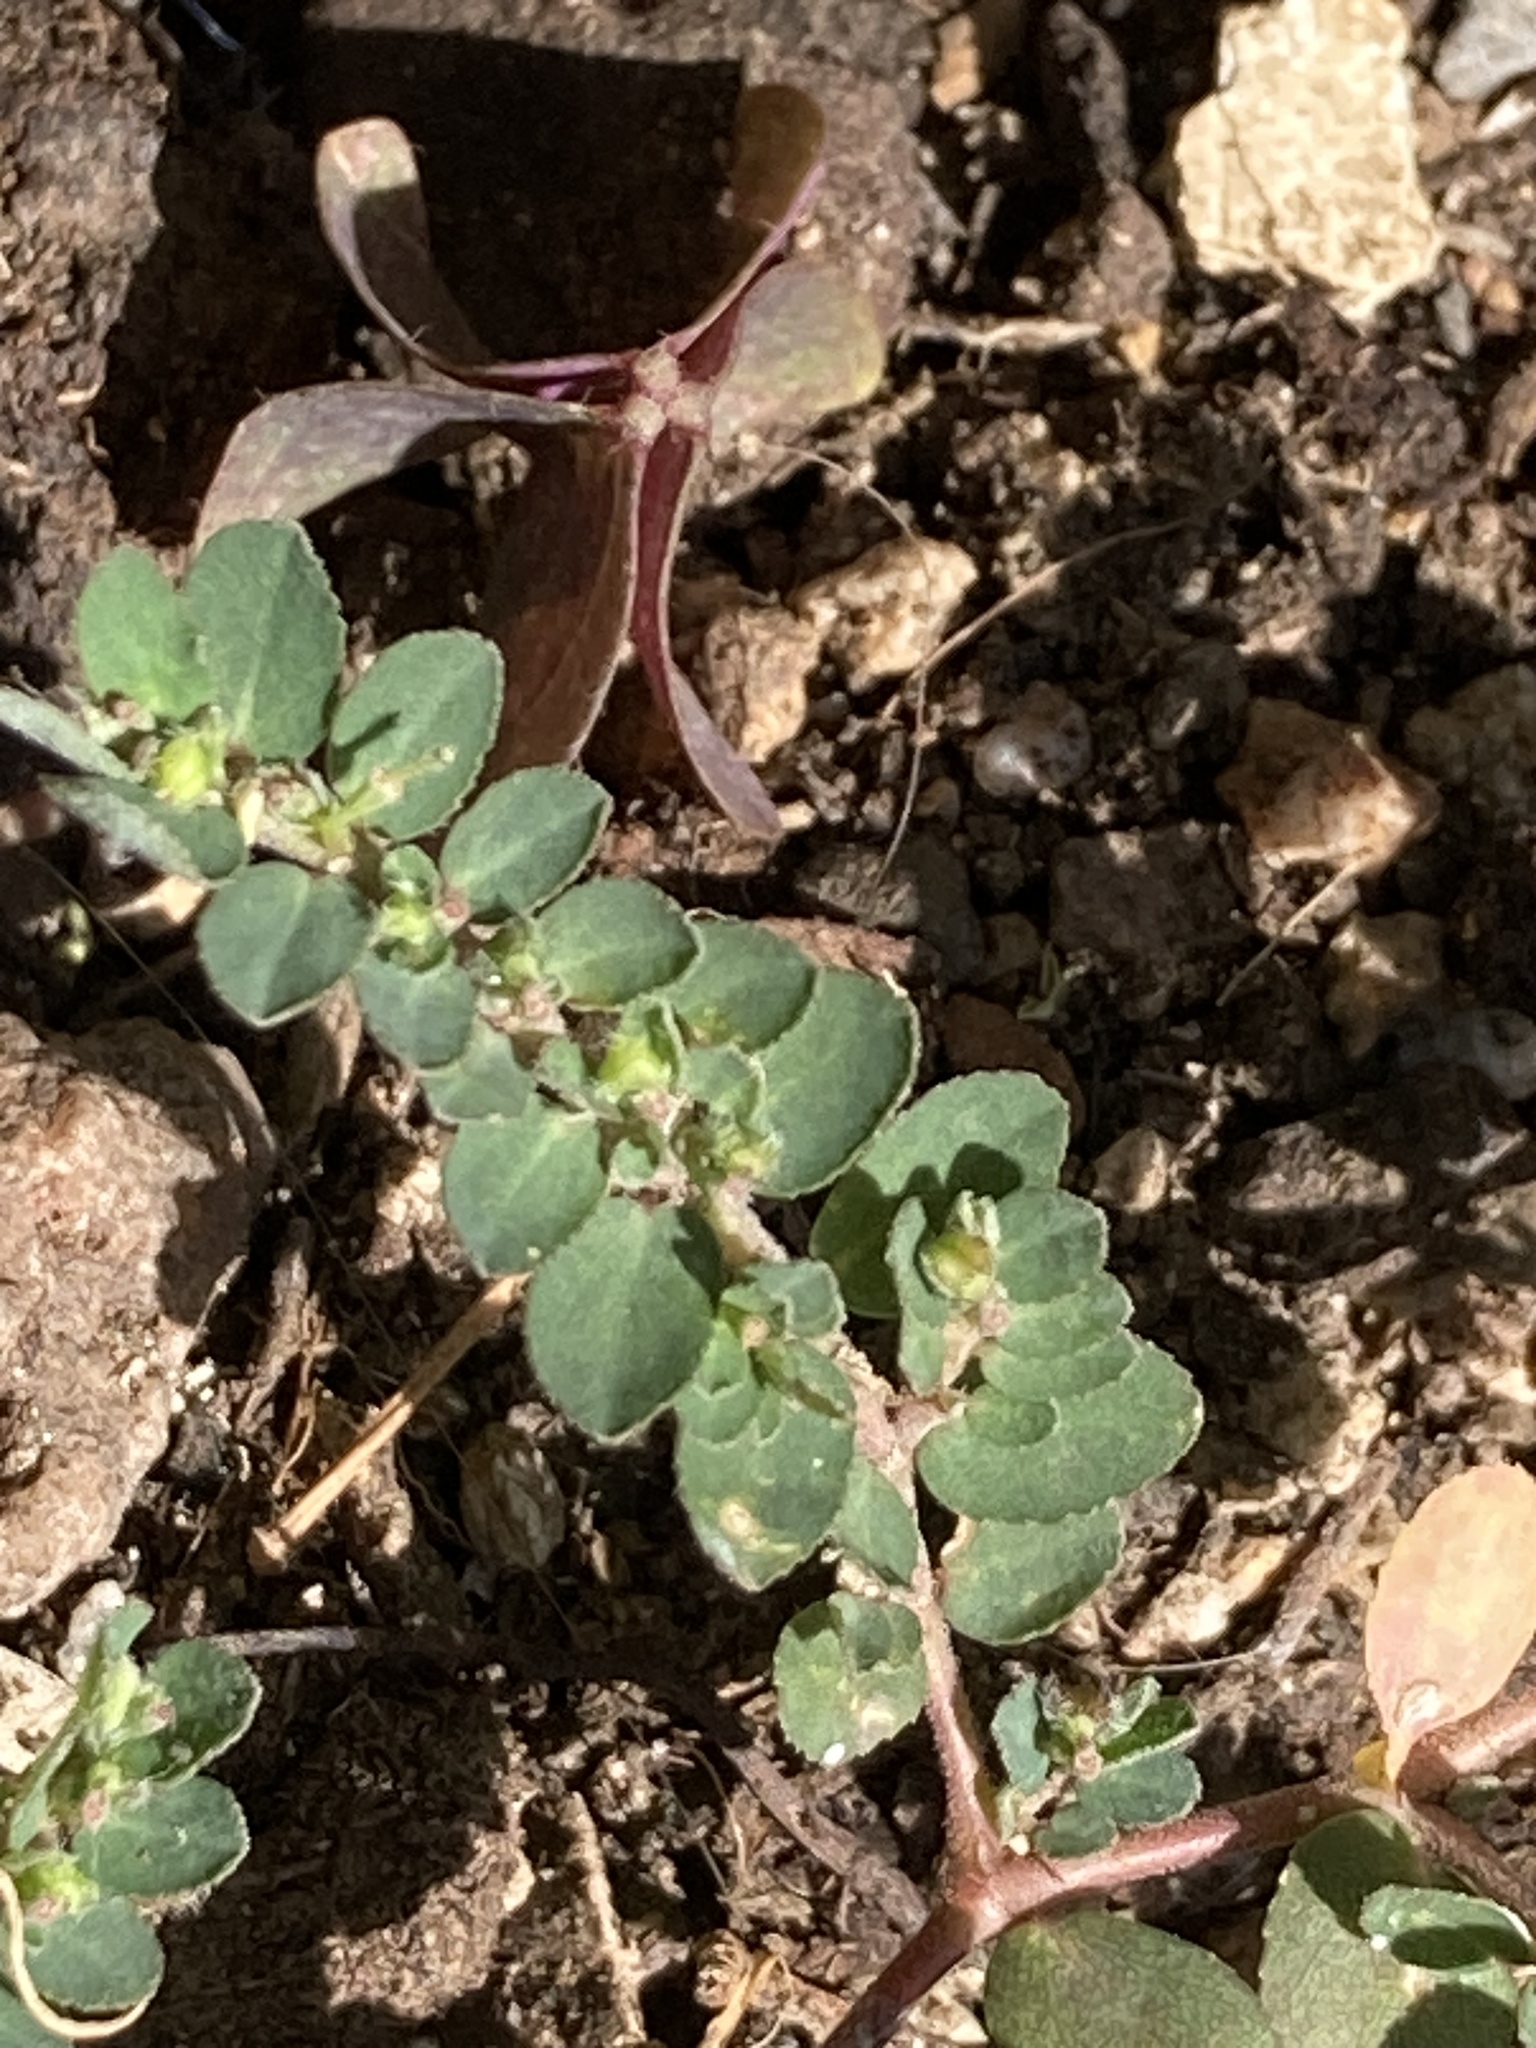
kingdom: Plantae
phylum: Tracheophyta
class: Magnoliopsida
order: Malpighiales
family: Euphorbiaceae
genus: Euphorbia
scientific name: Euphorbia prostrata
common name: Prostrate sandmat
